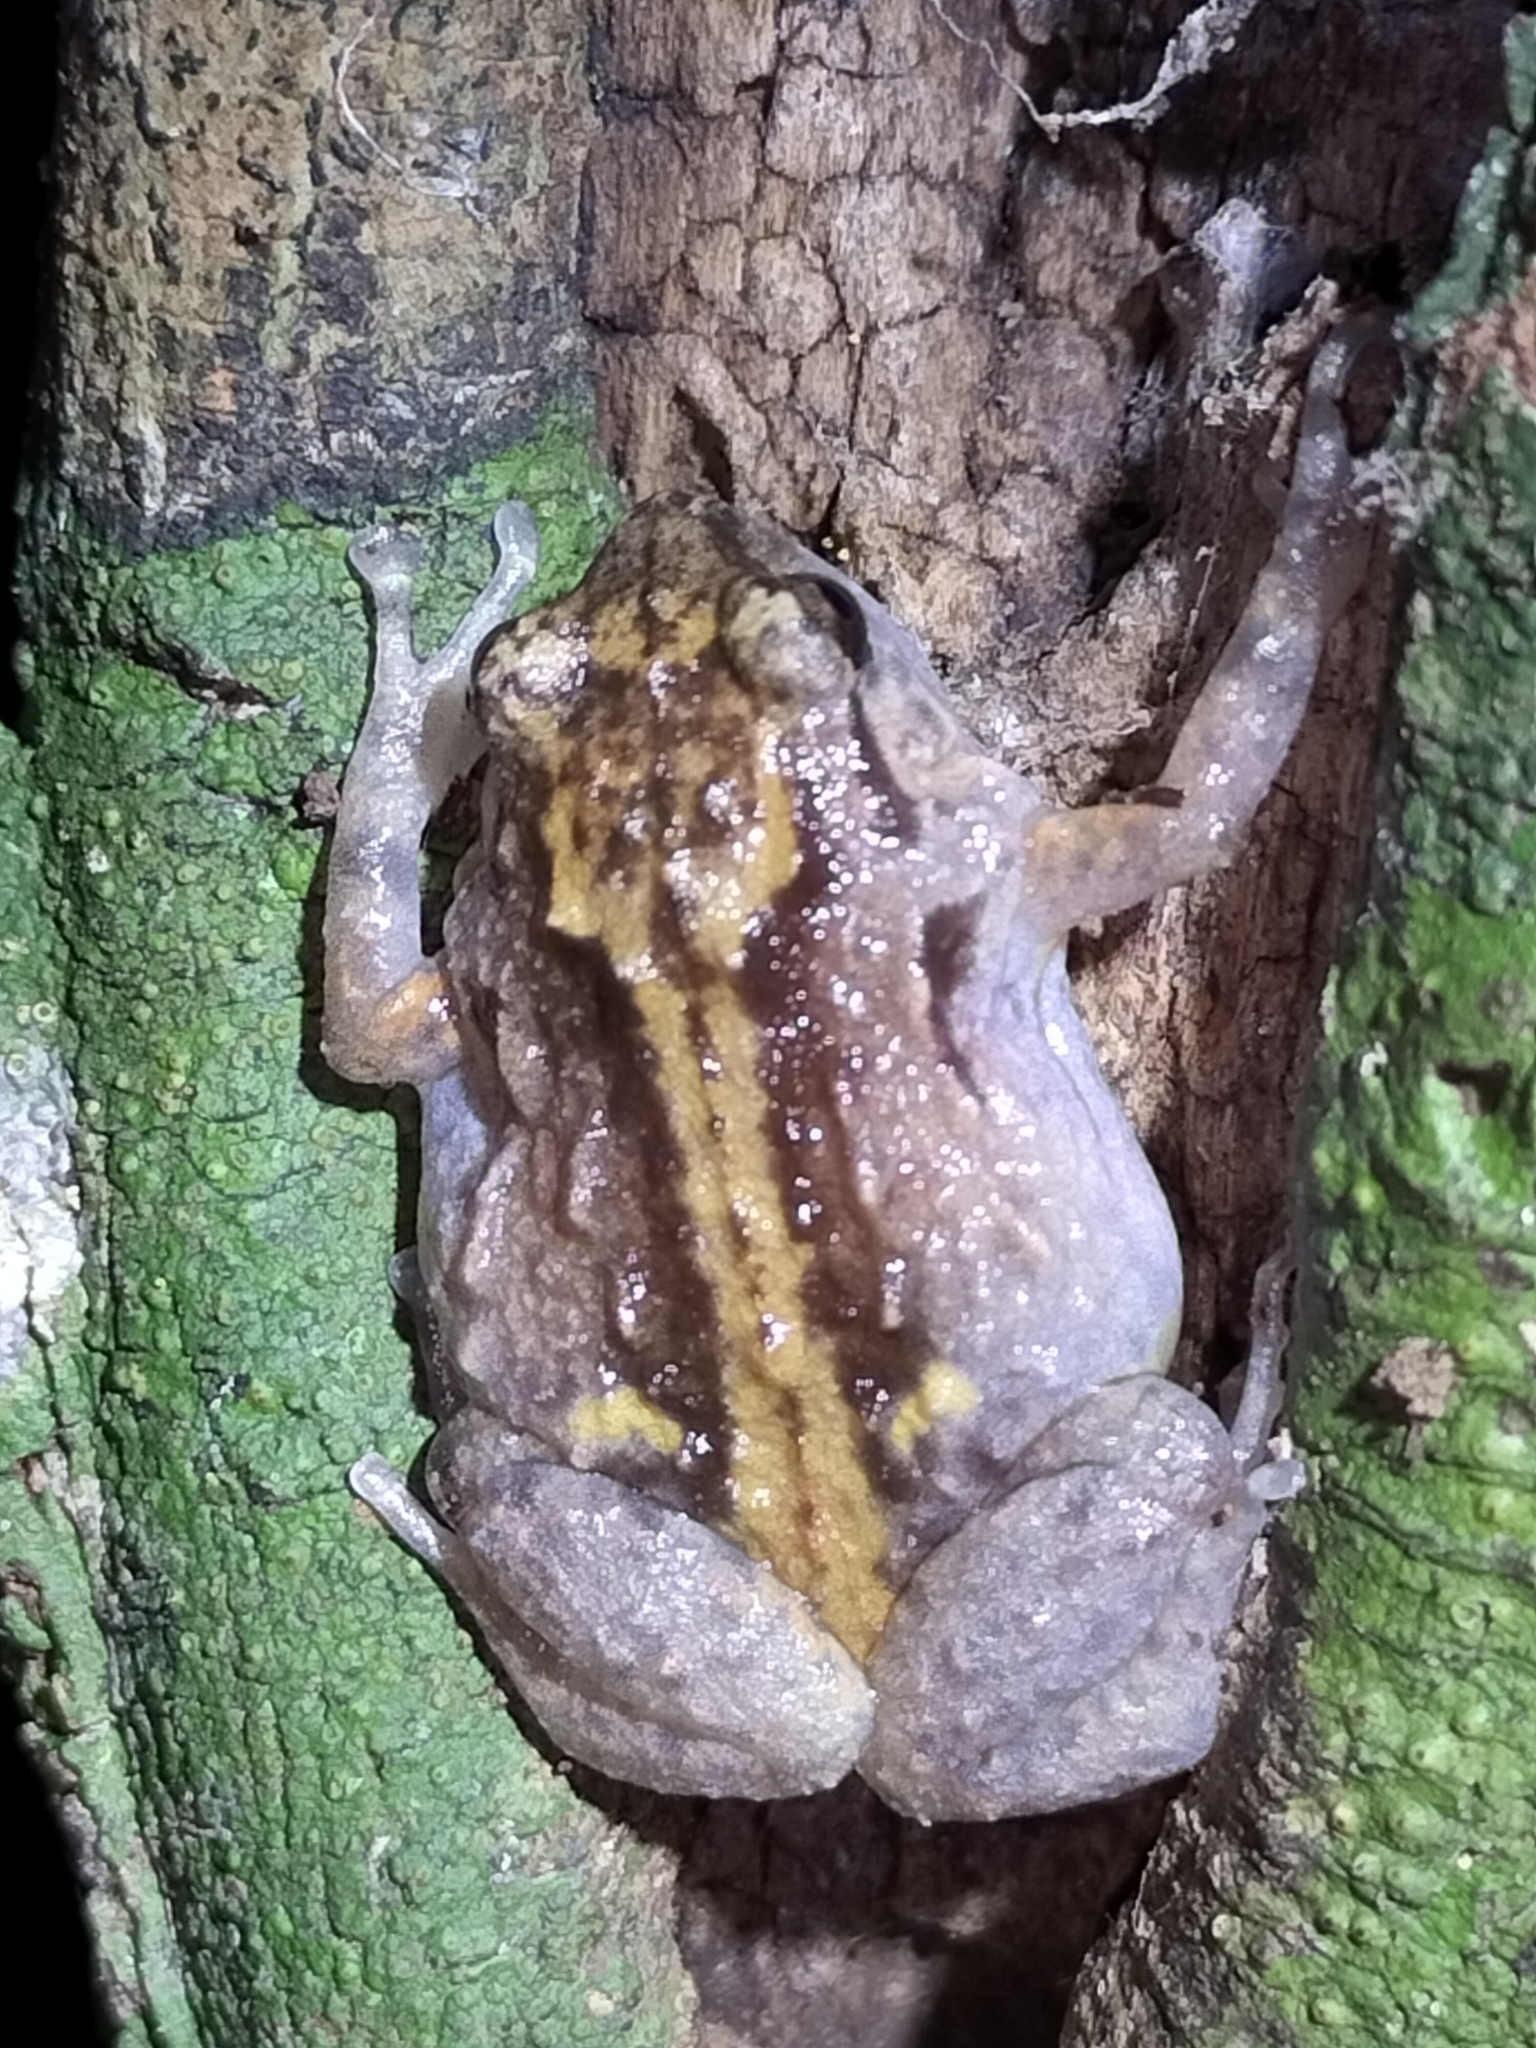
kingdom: Animalia
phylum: Chordata
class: Amphibia
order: Anura
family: Microhylidae
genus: Cophixalus
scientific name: Cophixalus ornatus
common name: Ornate frog
